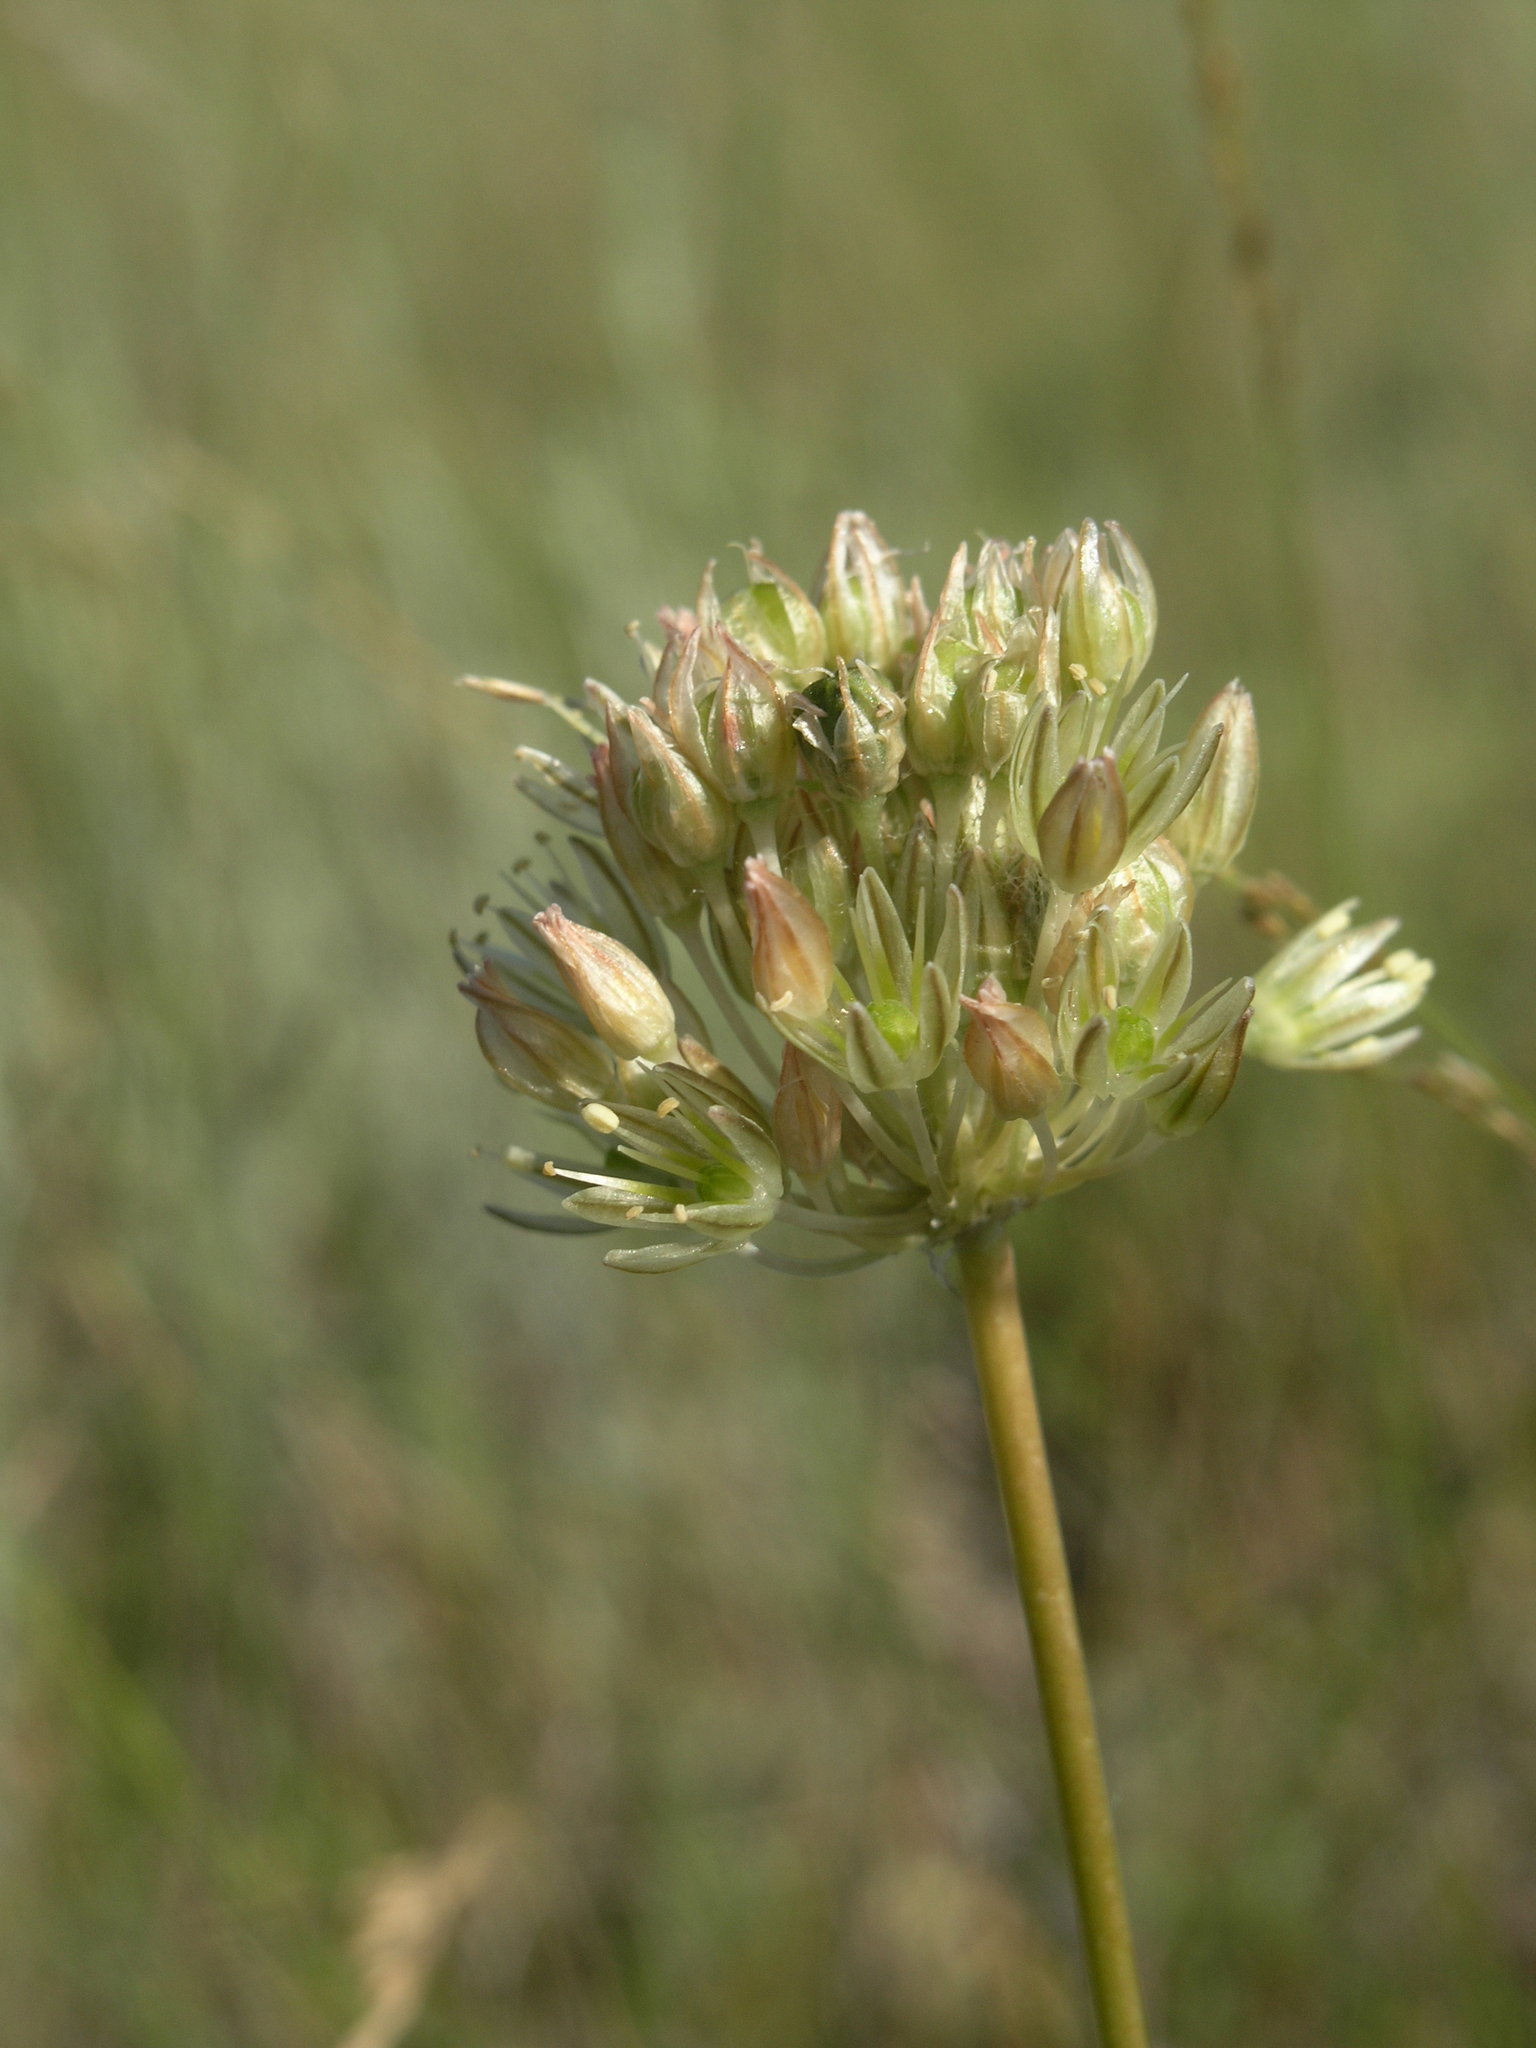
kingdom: Plantae
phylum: Tracheophyta
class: Liliopsida
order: Asparagales
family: Amaryllidaceae
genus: Allium
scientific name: Allium delicatulum
